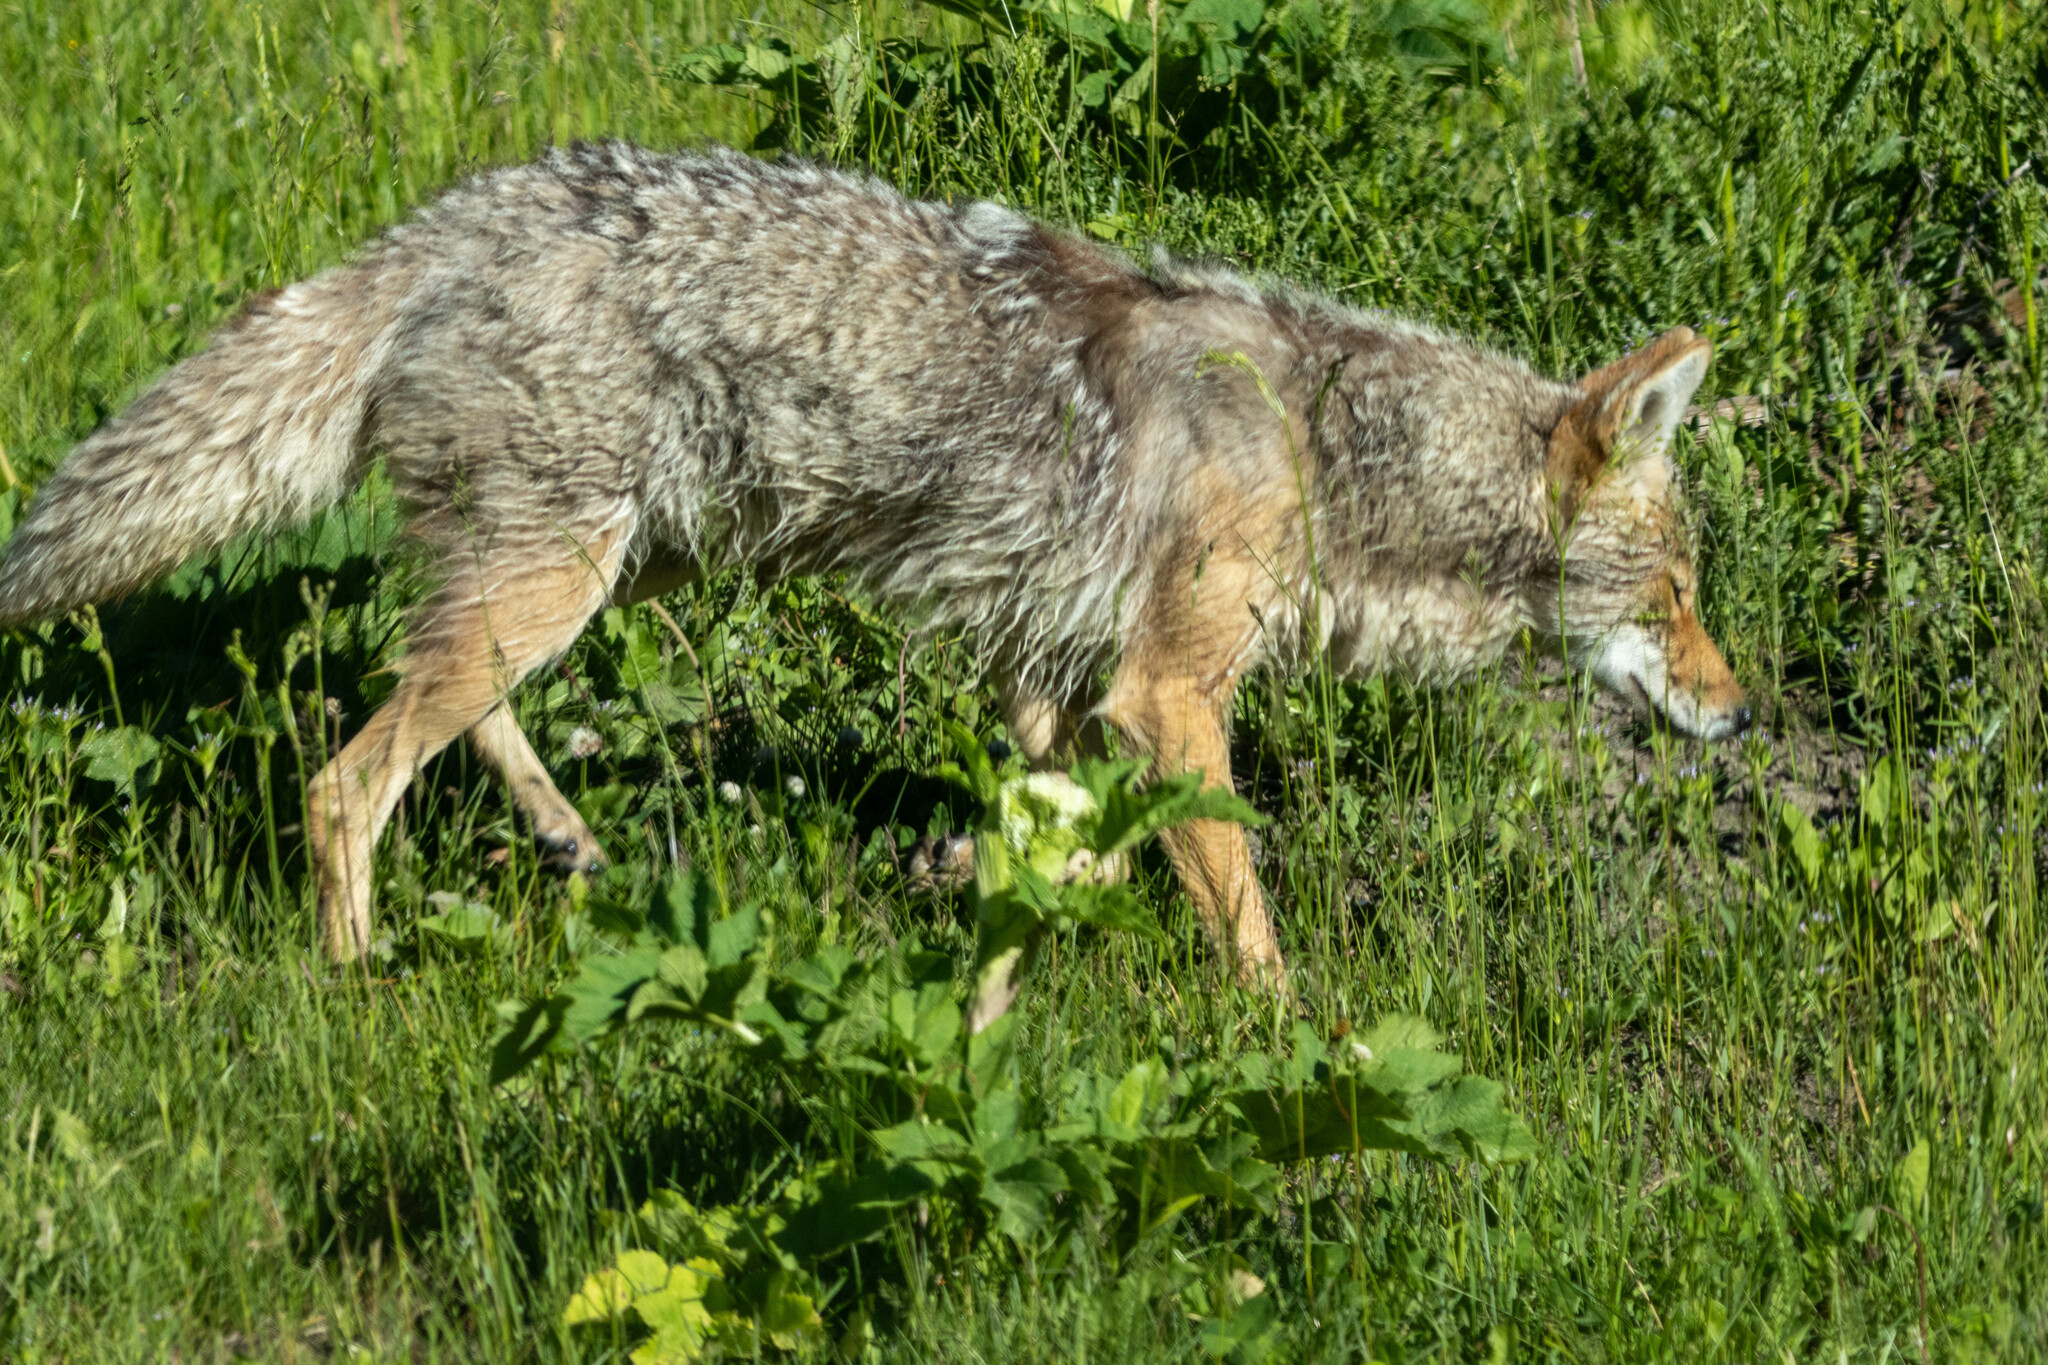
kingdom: Animalia
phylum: Chordata
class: Mammalia
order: Carnivora
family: Canidae
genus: Canis
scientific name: Canis latrans
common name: Coyote
